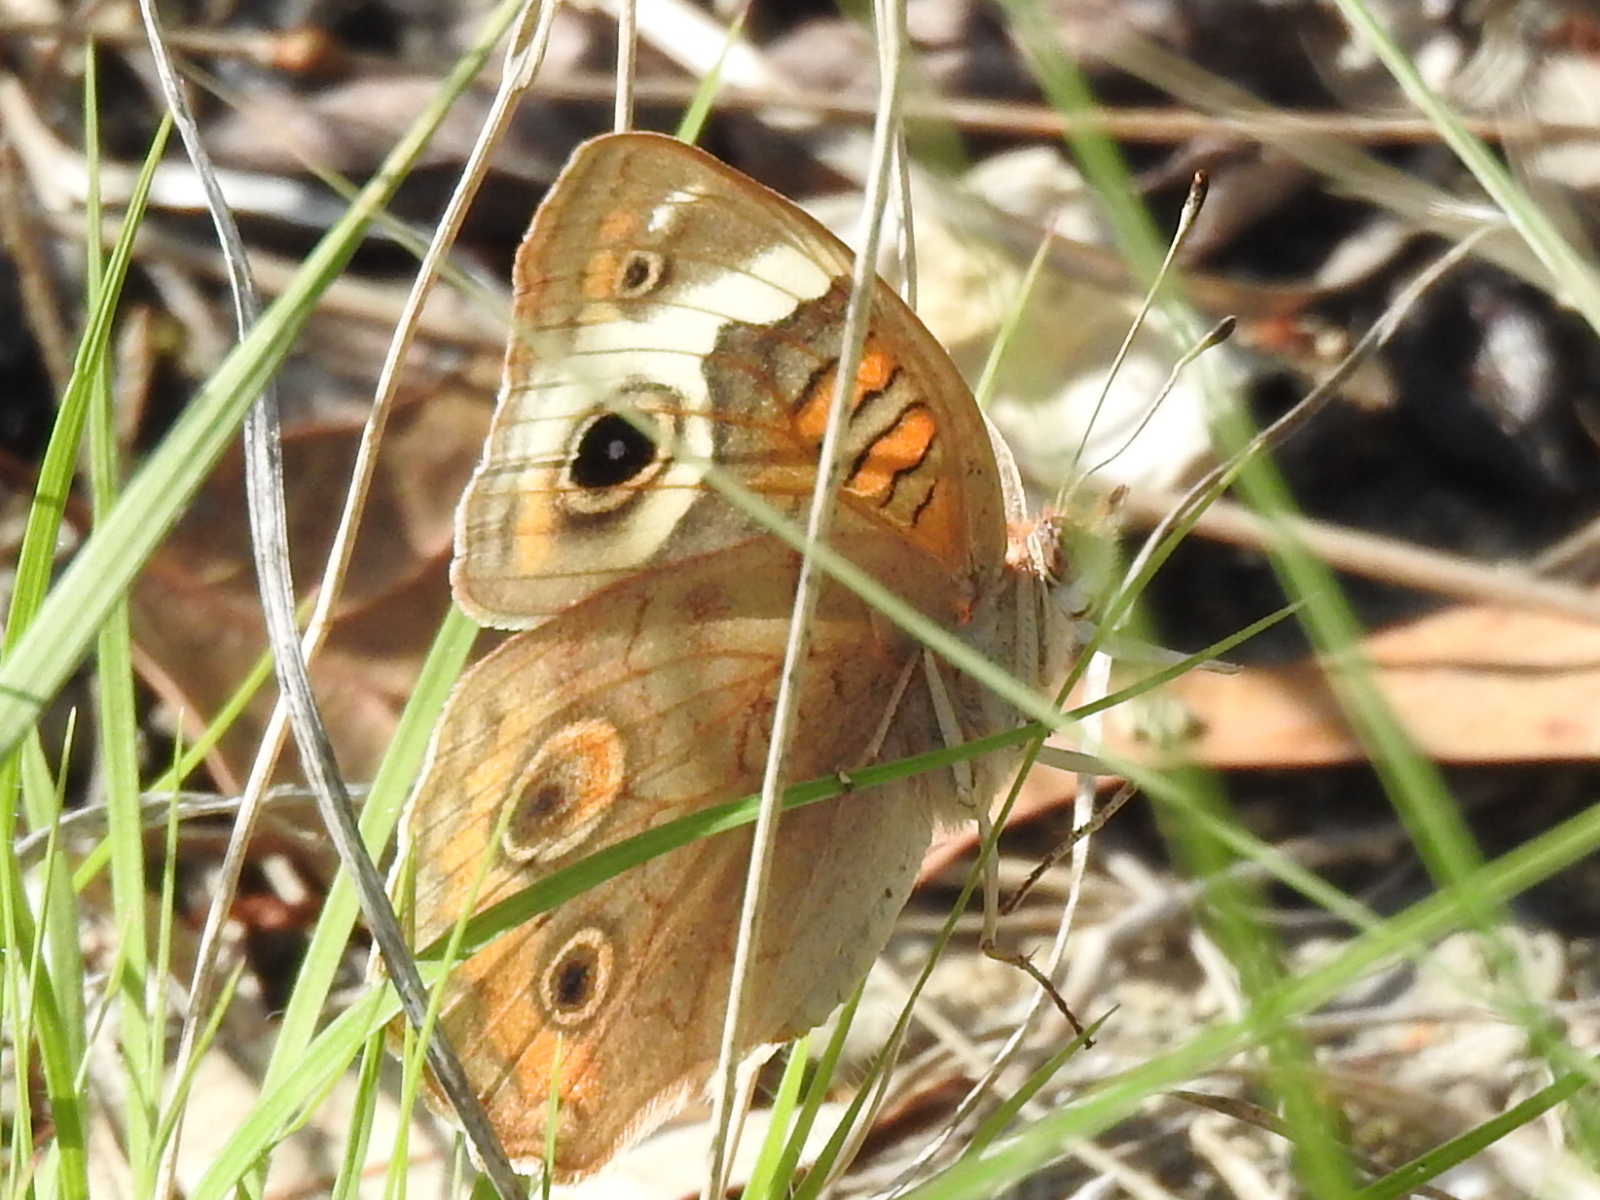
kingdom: Animalia
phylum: Arthropoda
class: Insecta
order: Lepidoptera
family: Nymphalidae
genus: Junonia
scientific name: Junonia coenia
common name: Common buckeye
